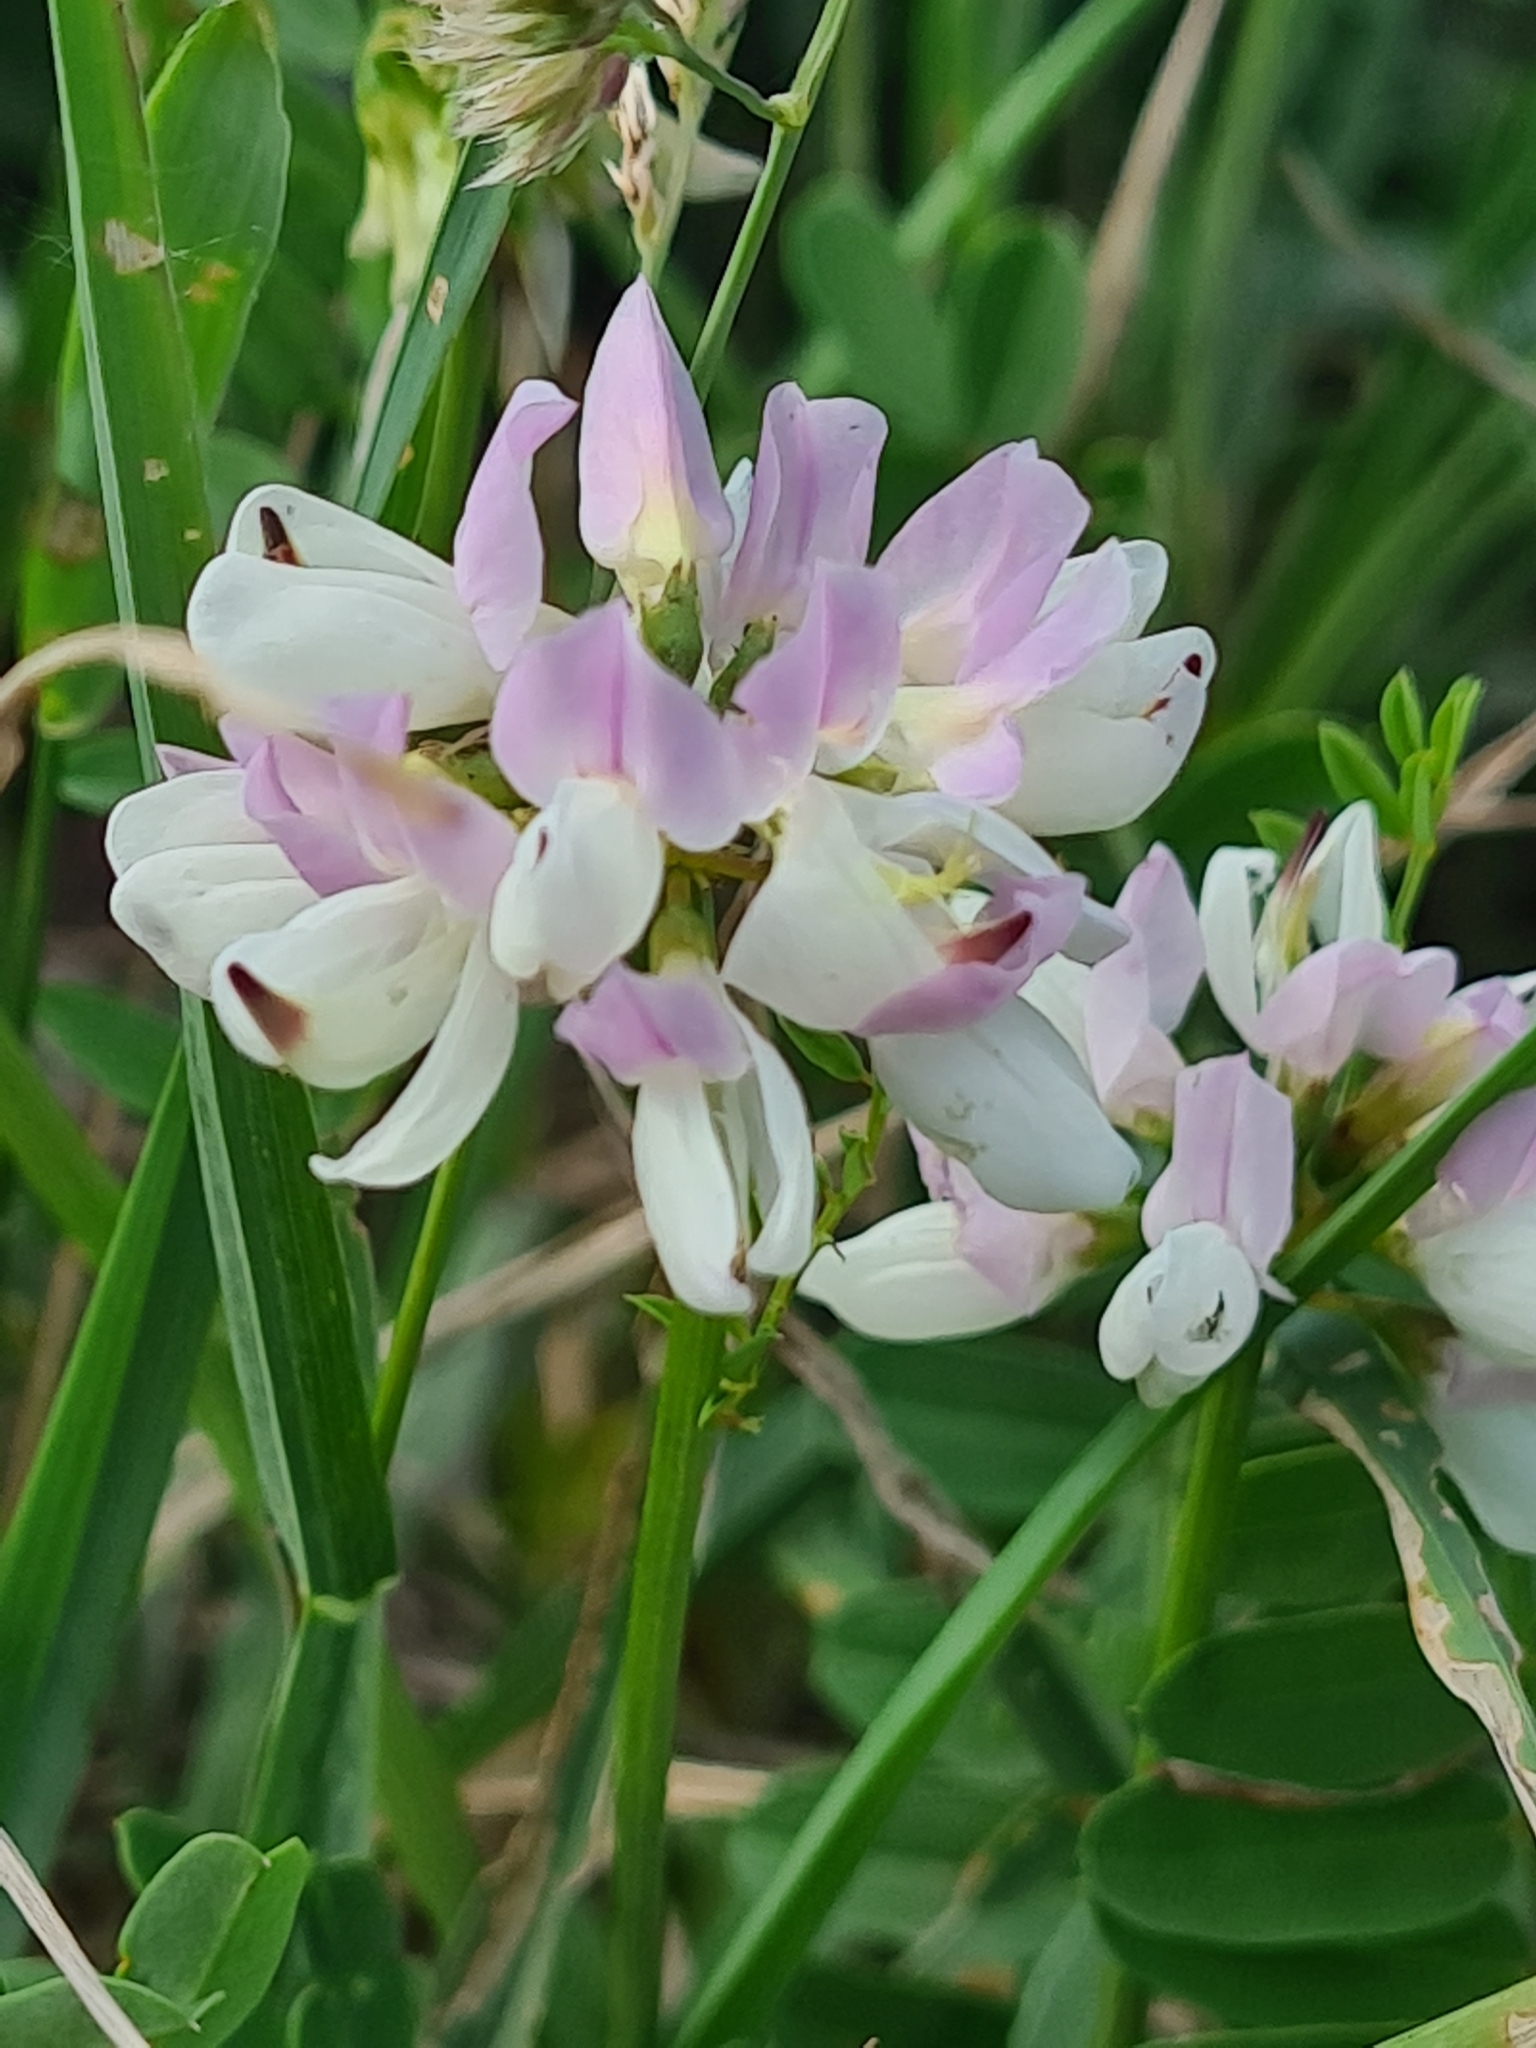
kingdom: Plantae
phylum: Tracheophyta
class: Magnoliopsida
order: Fabales
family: Fabaceae
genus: Coronilla
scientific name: Coronilla varia
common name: Crownvetch
